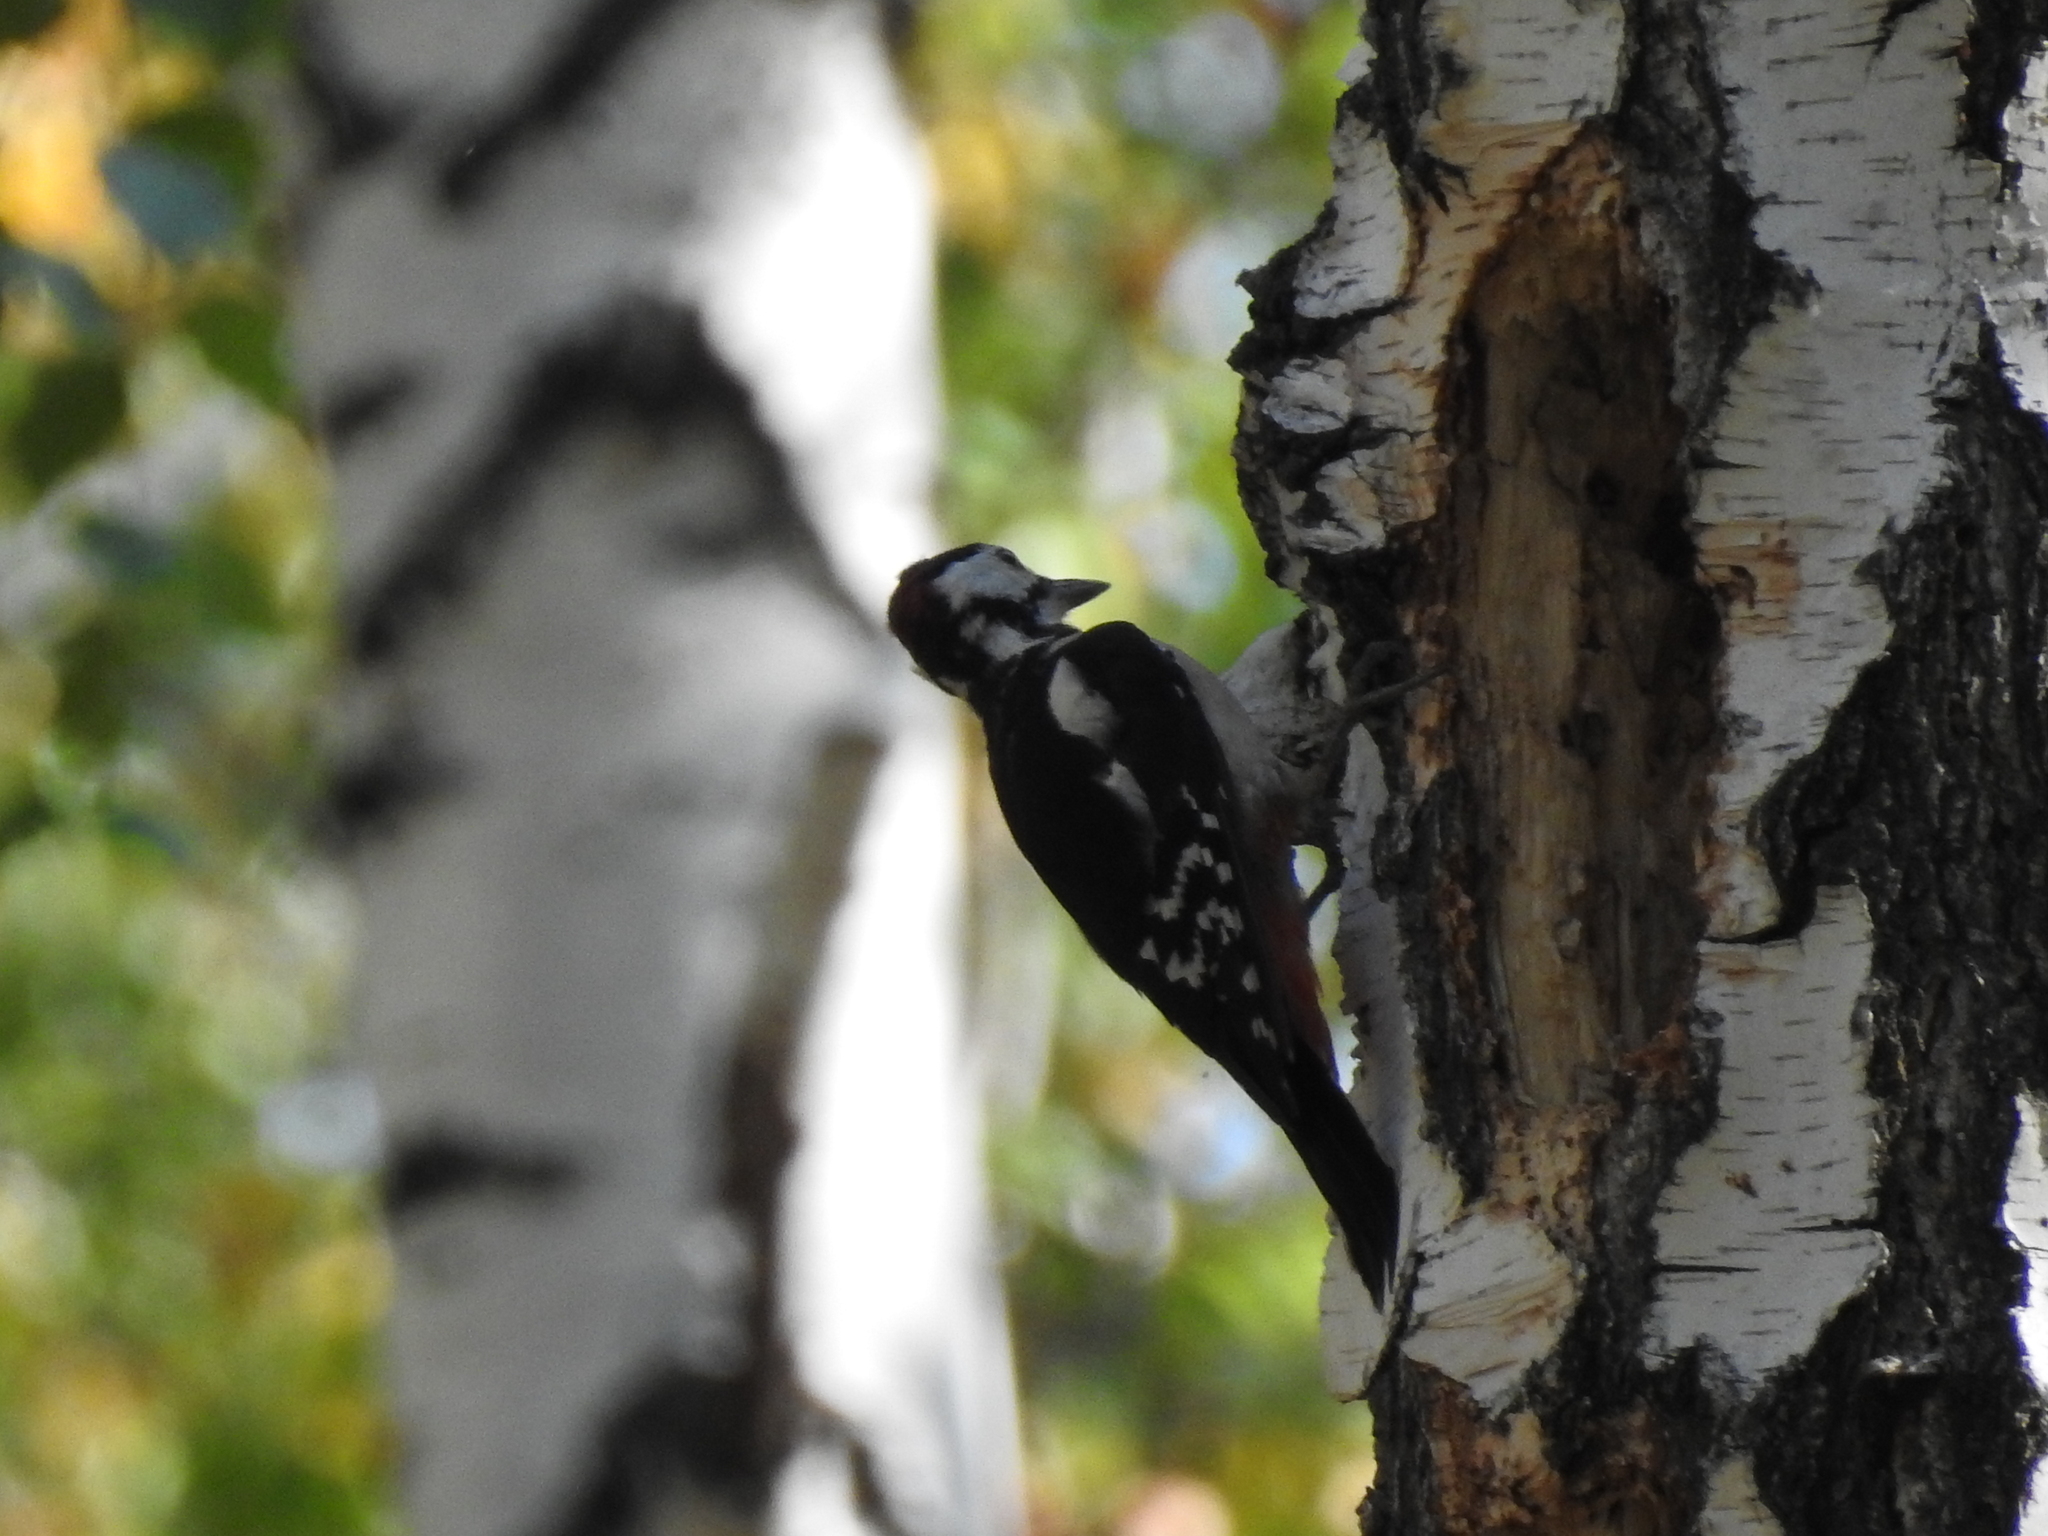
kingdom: Animalia
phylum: Chordata
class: Aves
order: Piciformes
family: Picidae
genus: Dendrocopos
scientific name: Dendrocopos major
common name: Great spotted woodpecker
